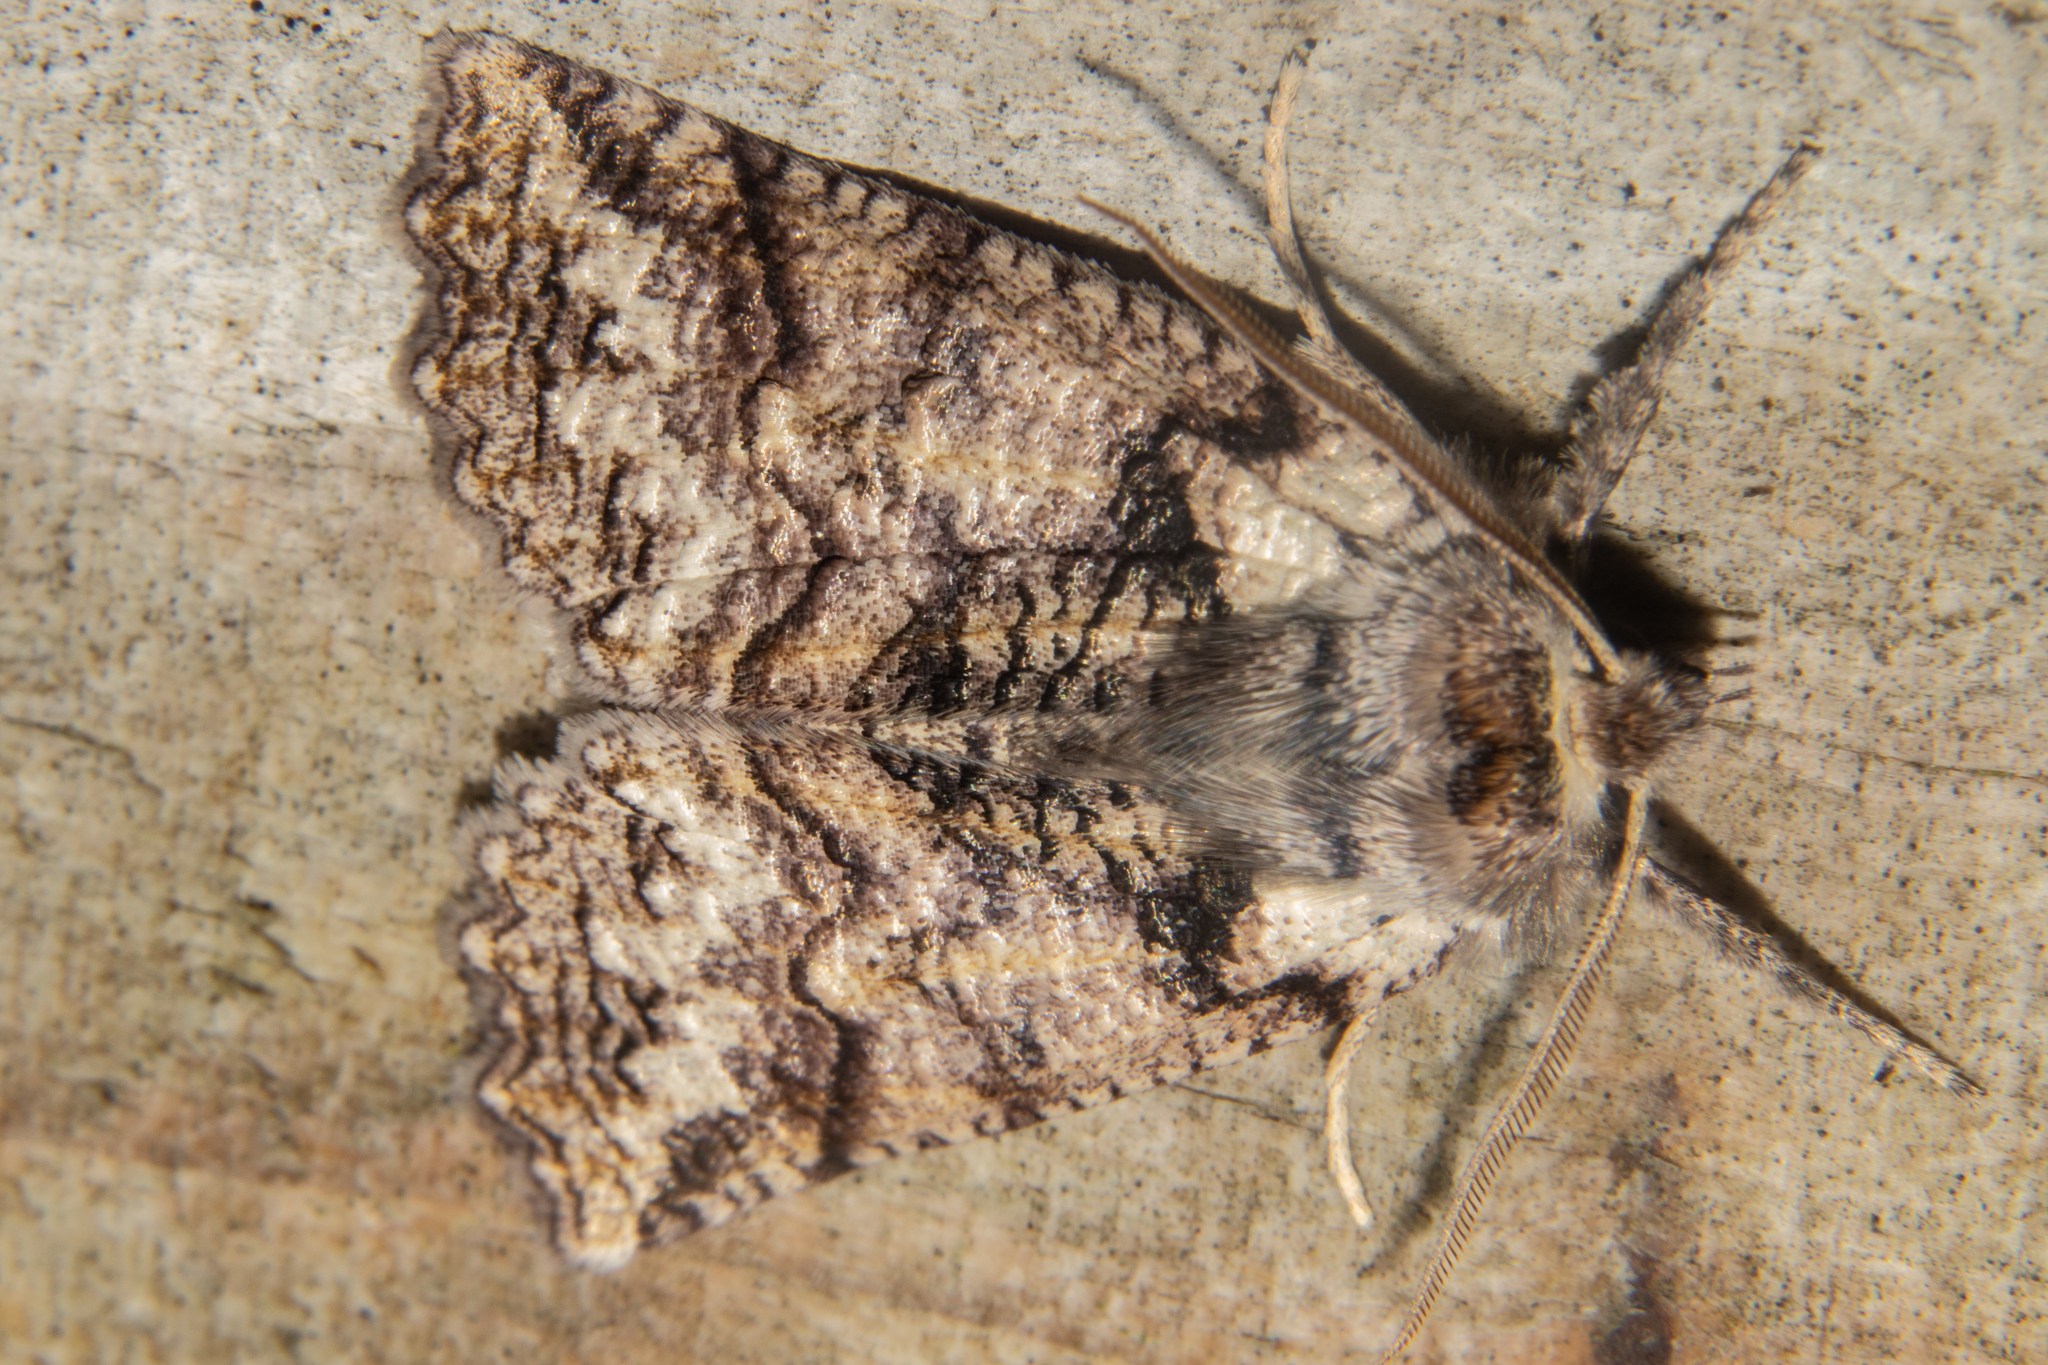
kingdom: Animalia
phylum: Arthropoda
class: Insecta
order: Lepidoptera
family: Geometridae
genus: Declana
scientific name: Declana floccosa
